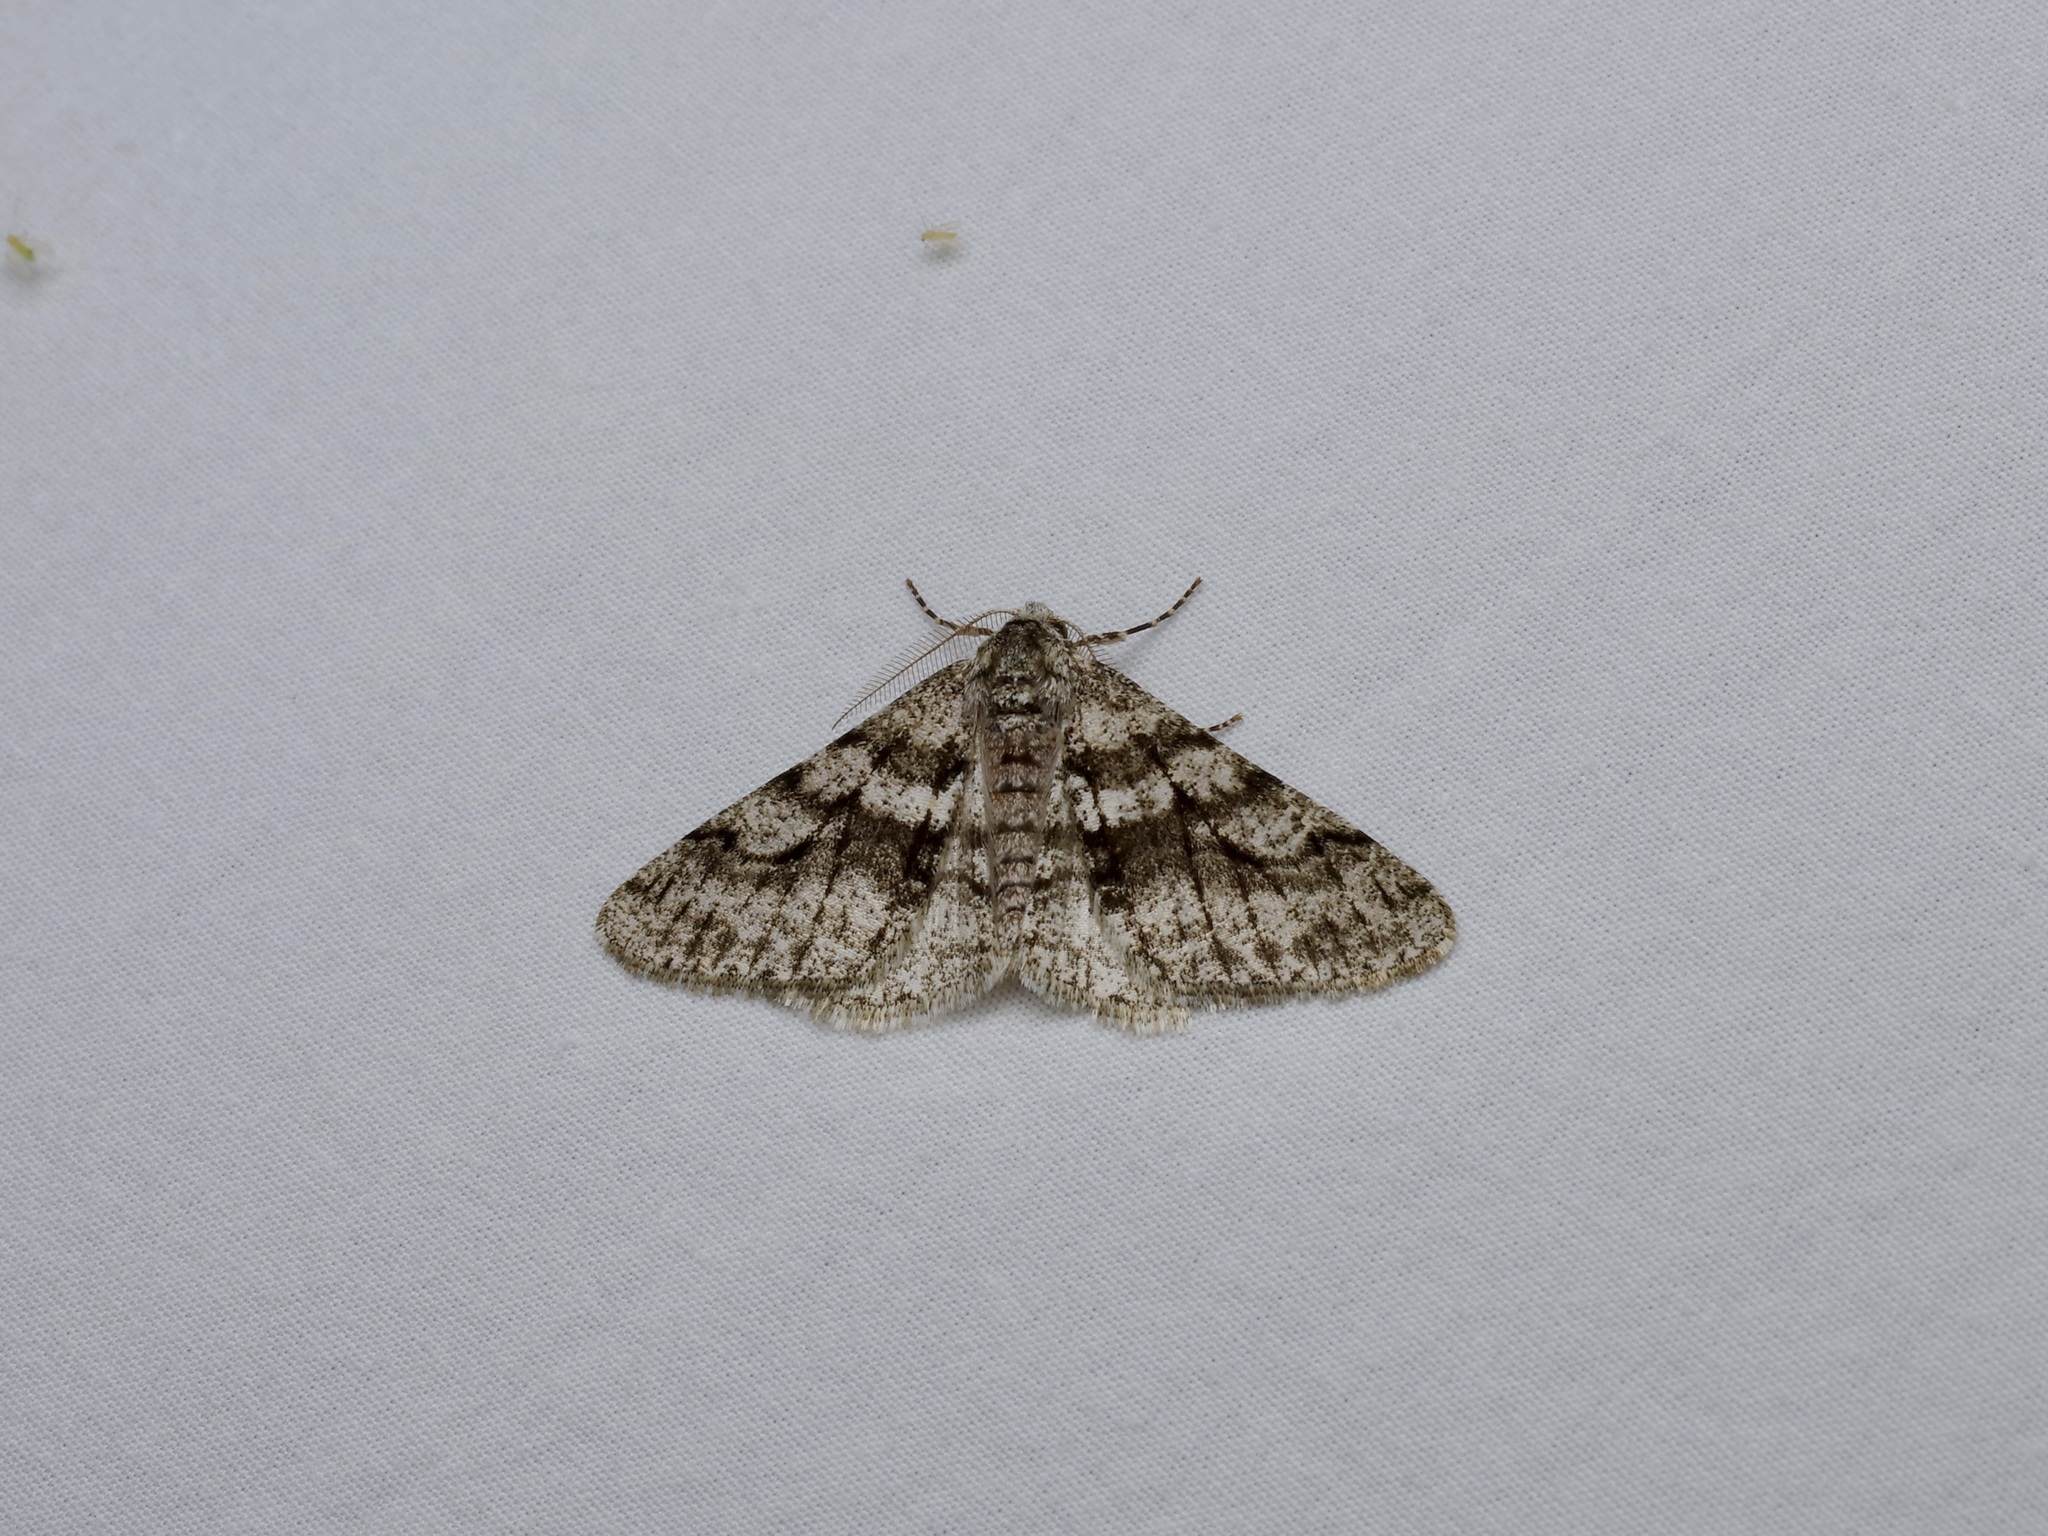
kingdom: Animalia
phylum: Arthropoda
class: Insecta
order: Lepidoptera
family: Geometridae
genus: Phigalia
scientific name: Phigalia titea
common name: Spiny looper
